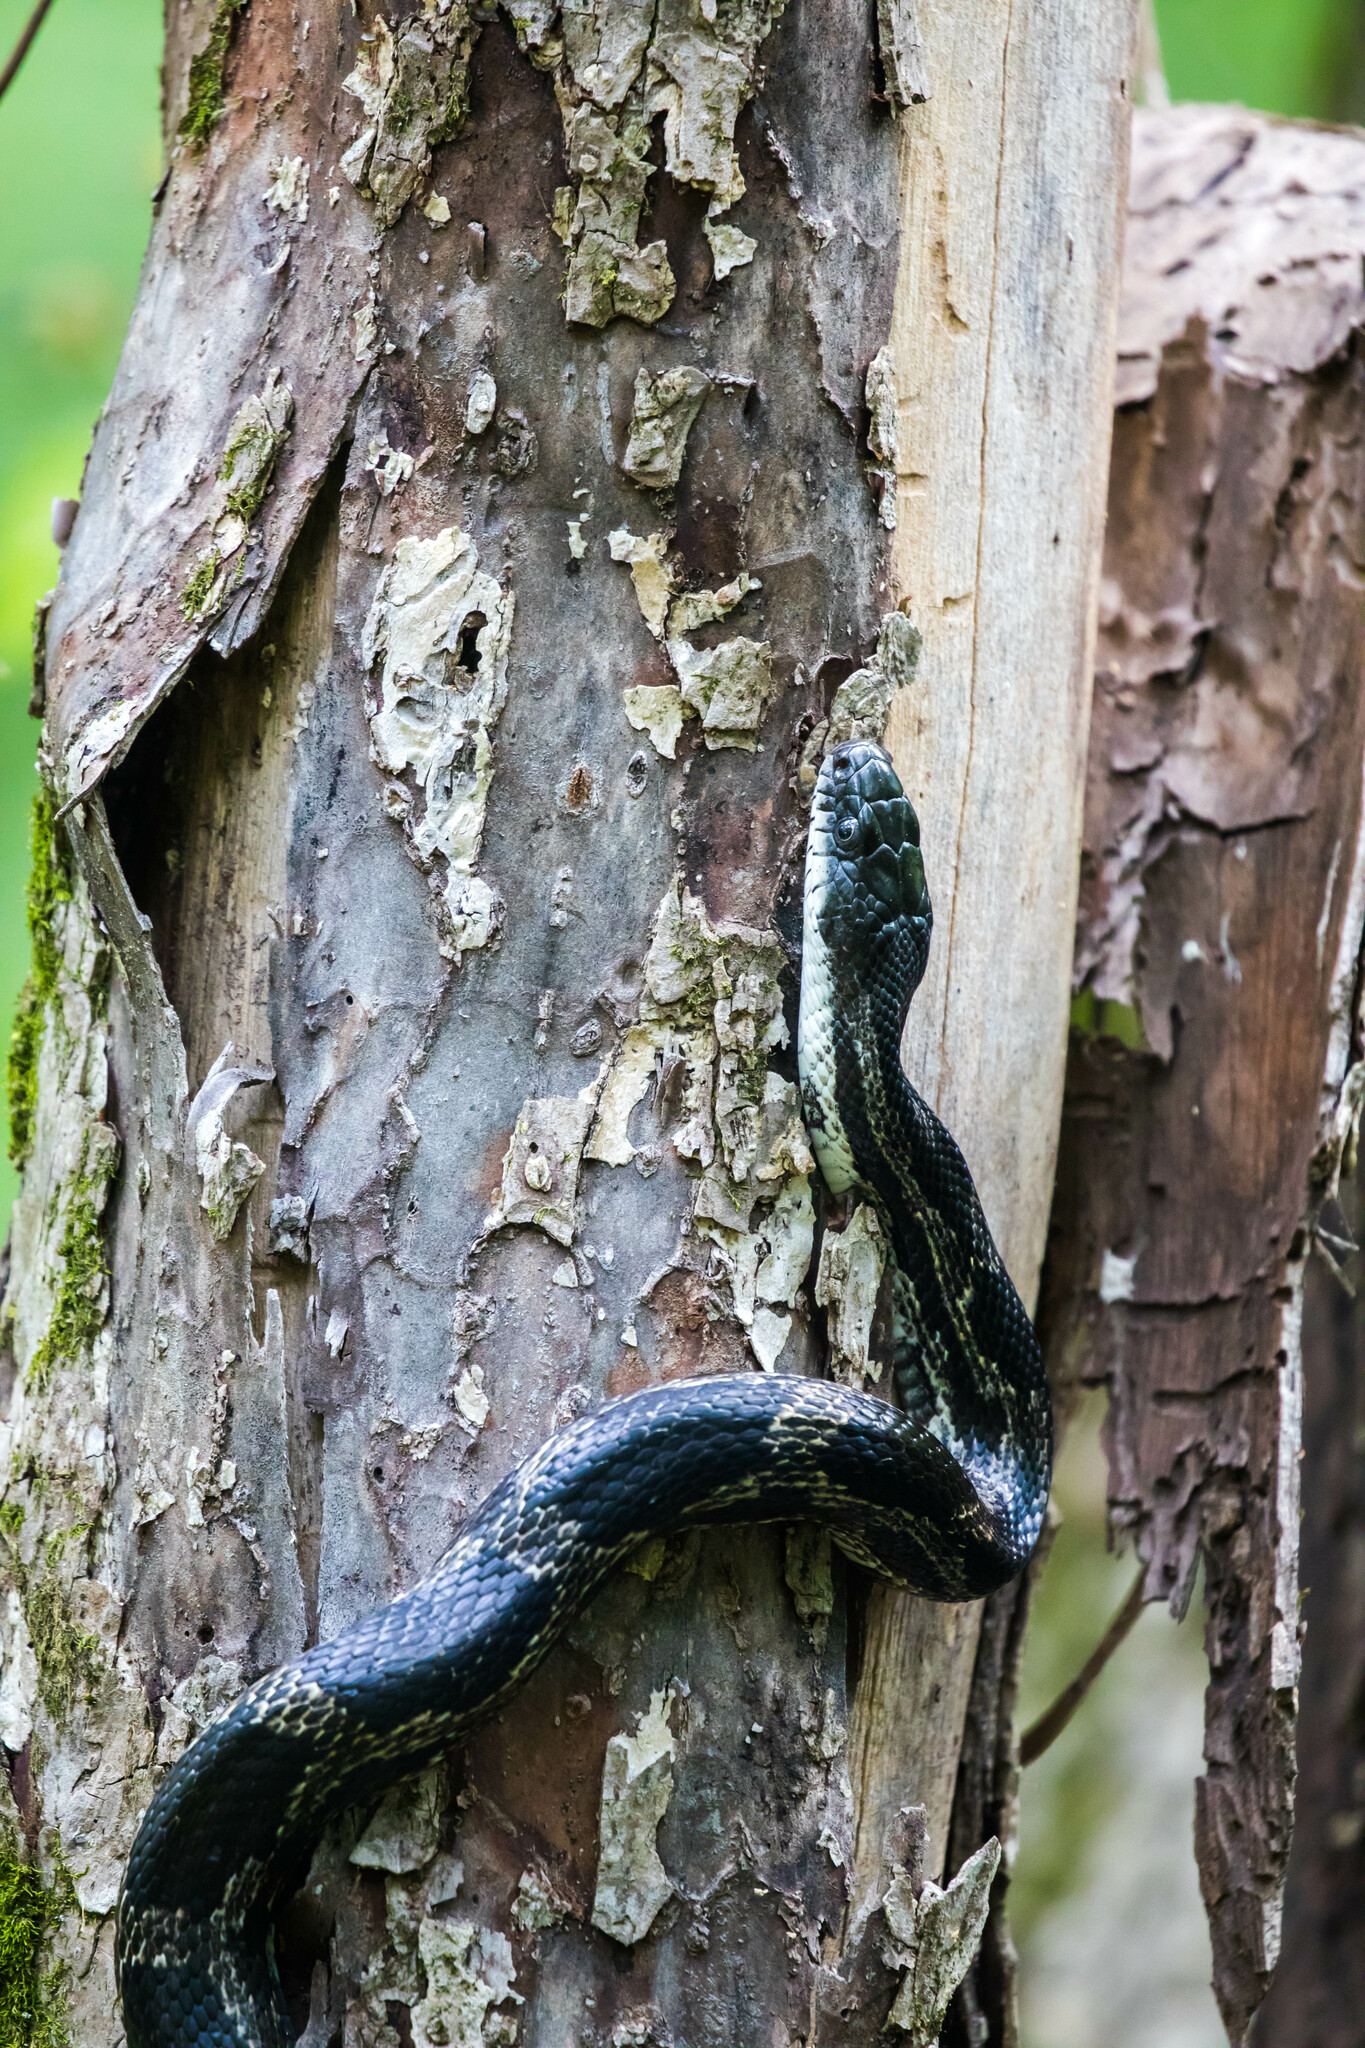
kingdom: Animalia
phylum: Chordata
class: Squamata
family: Colubridae
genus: Pantherophis
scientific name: Pantherophis spiloides
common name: Gray rat snake
